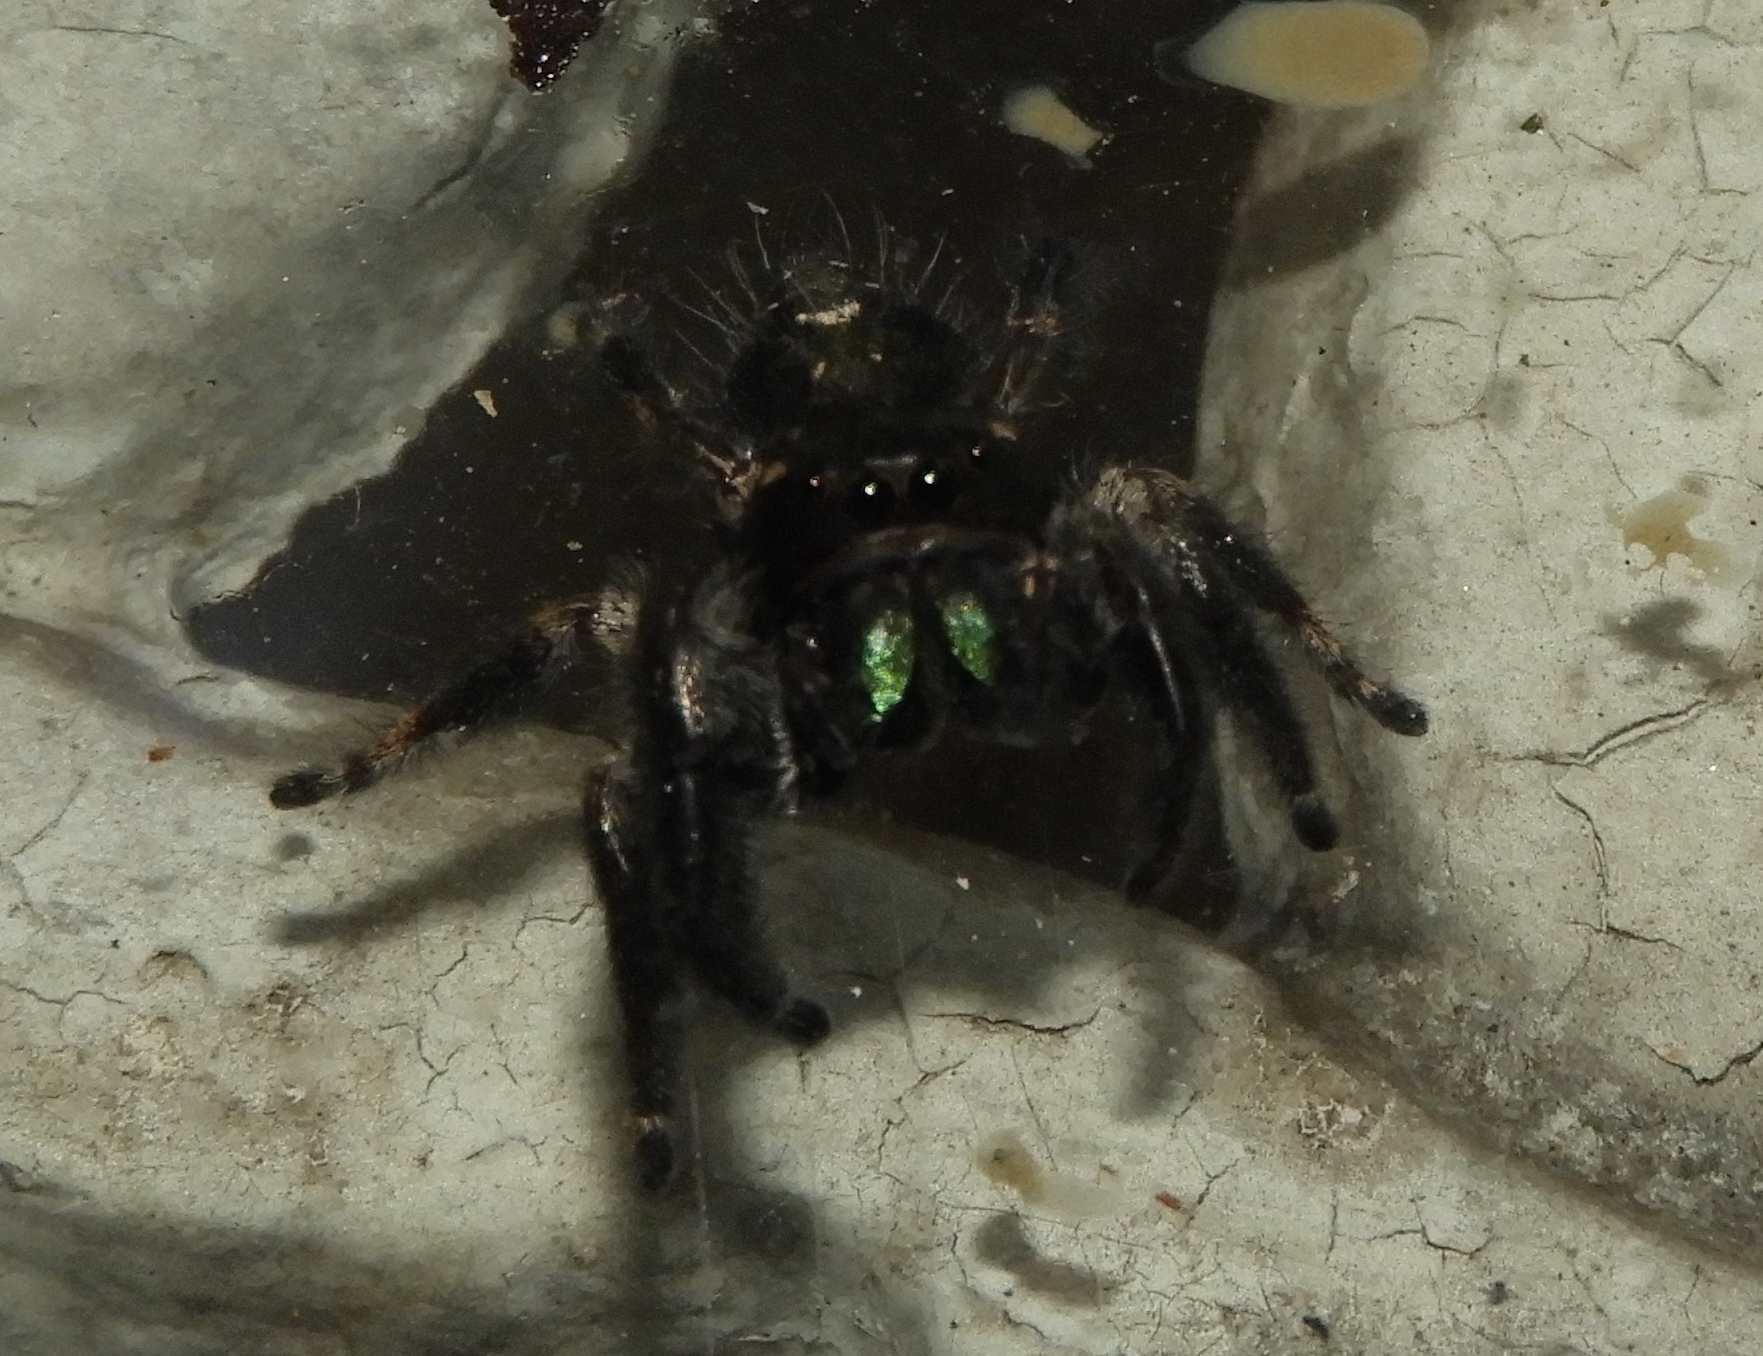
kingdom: Animalia
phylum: Arthropoda
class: Arachnida
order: Araneae
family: Salticidae
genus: Phidippus
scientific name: Phidippus maddisoni
